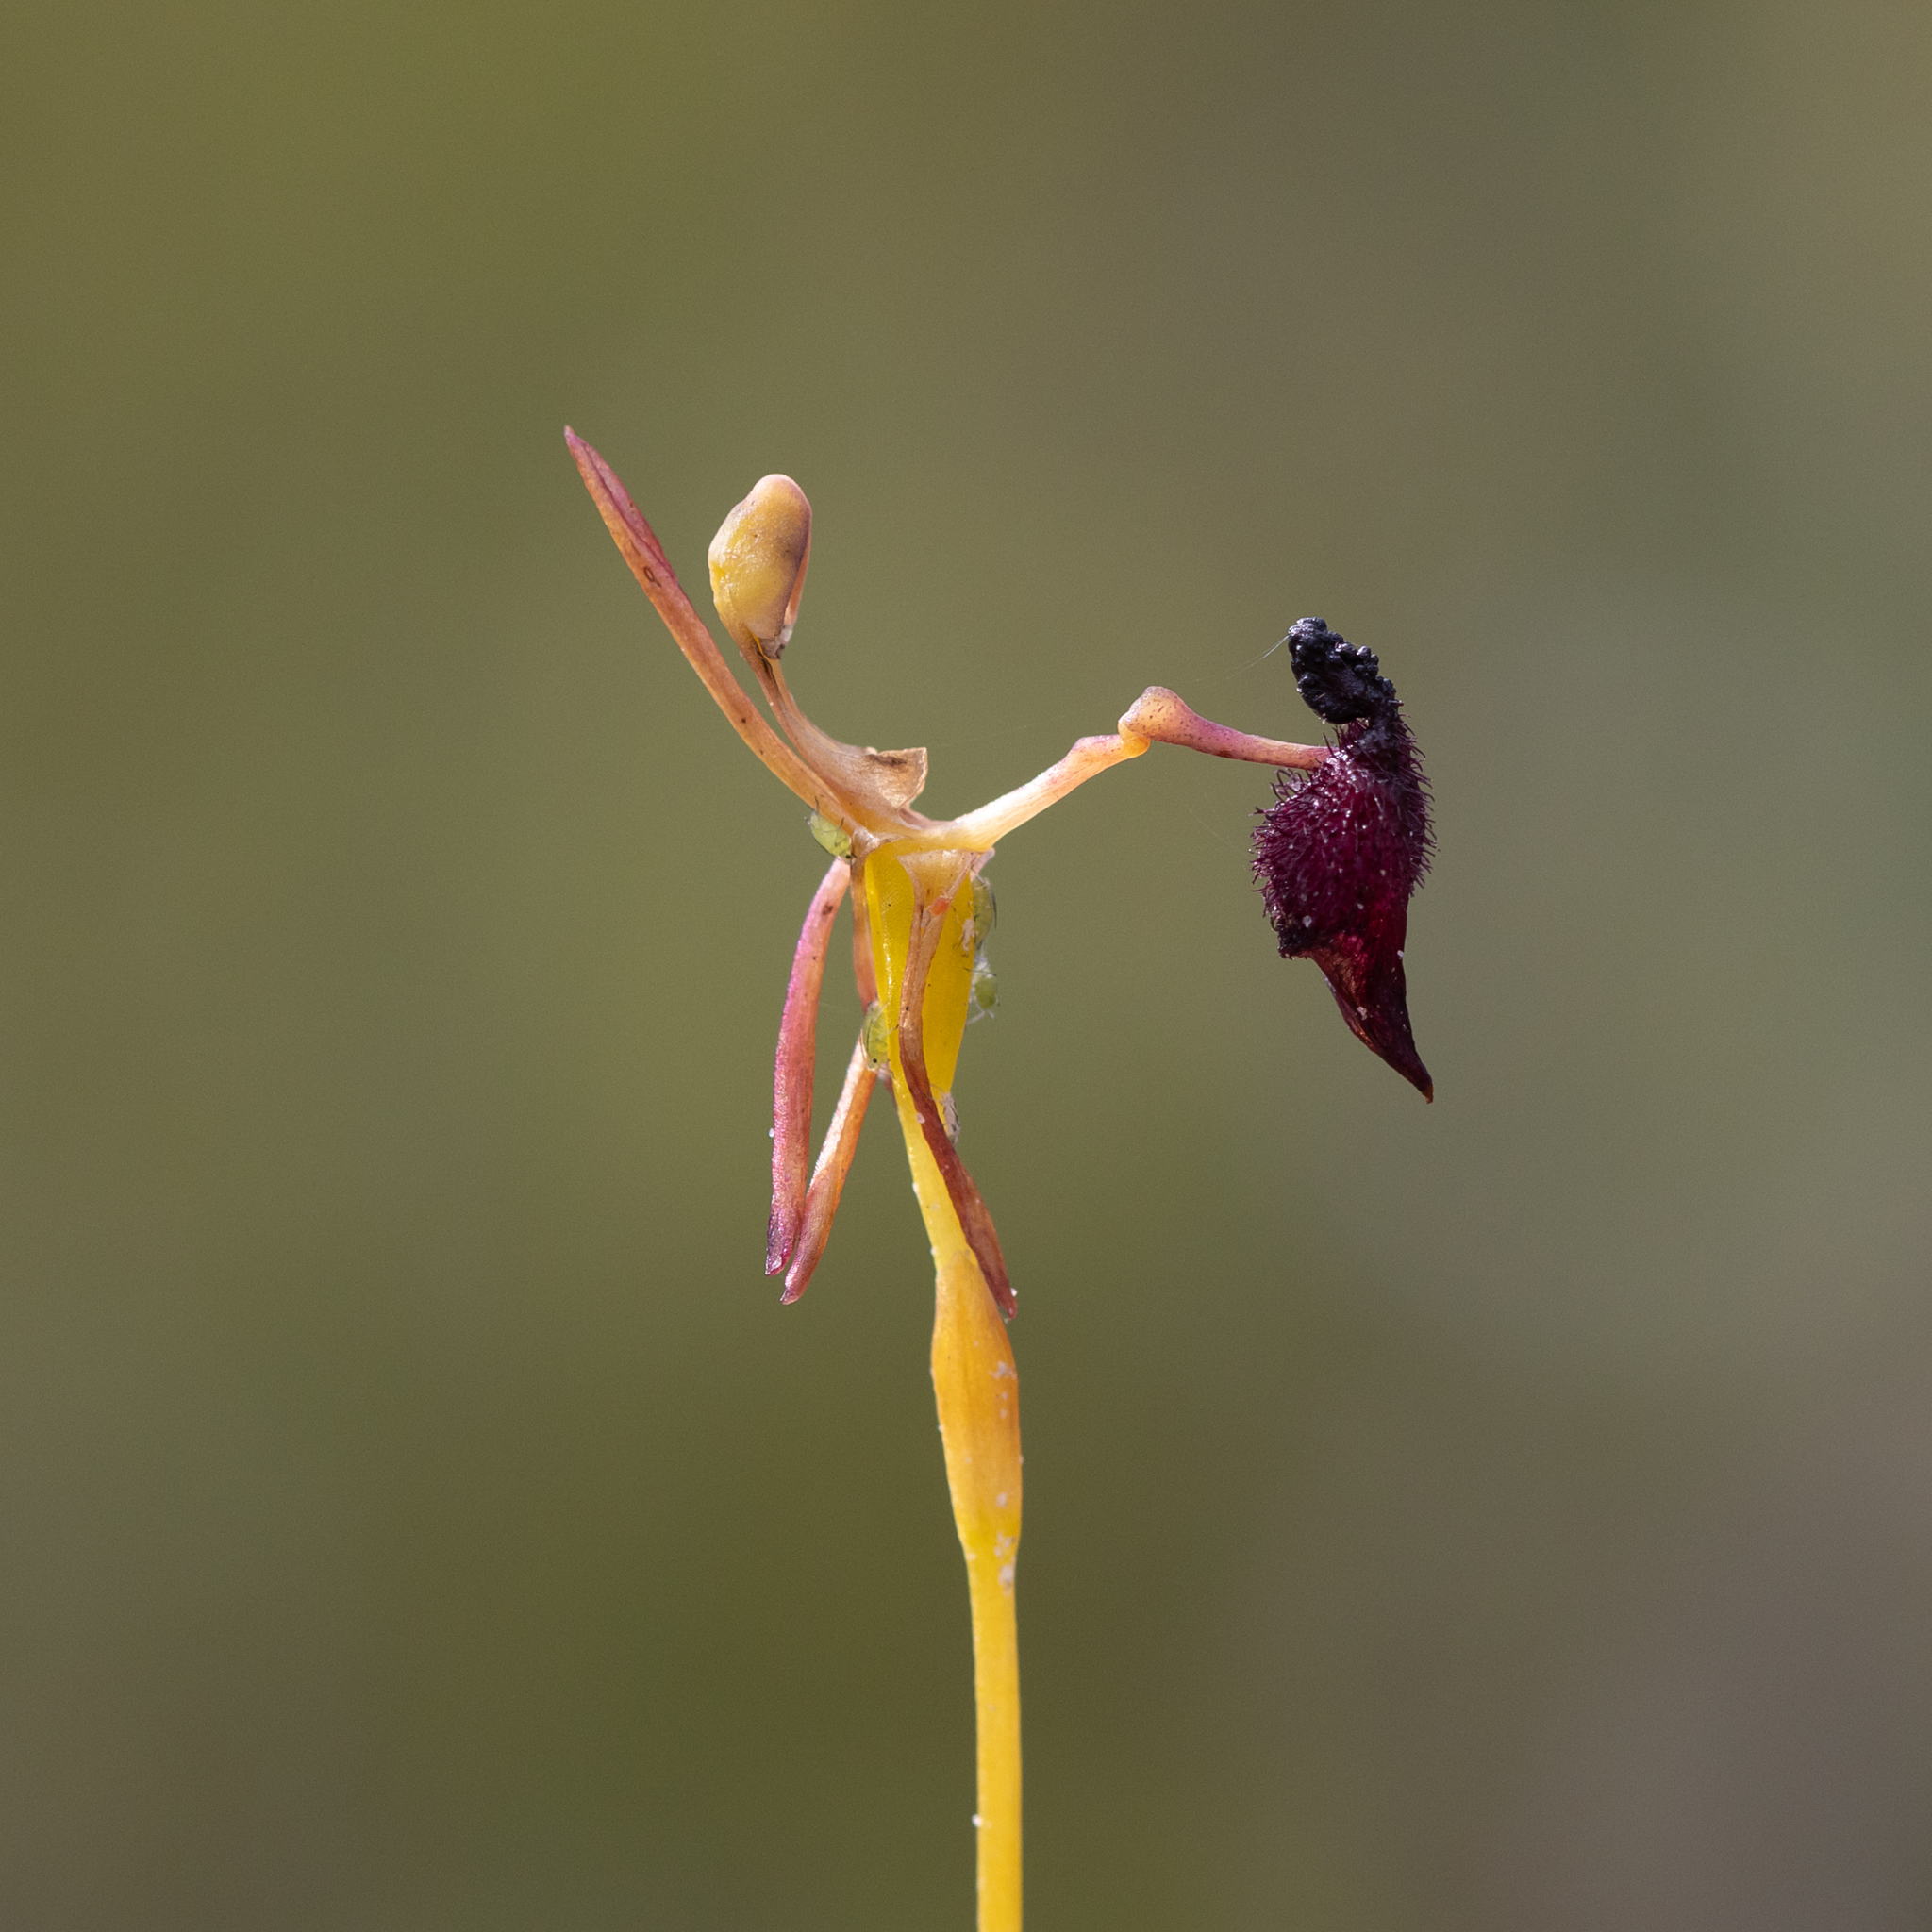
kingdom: Plantae
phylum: Tracheophyta
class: Liliopsida
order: Asparagales
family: Orchidaceae
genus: Drakaea
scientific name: Drakaea glyptodon
